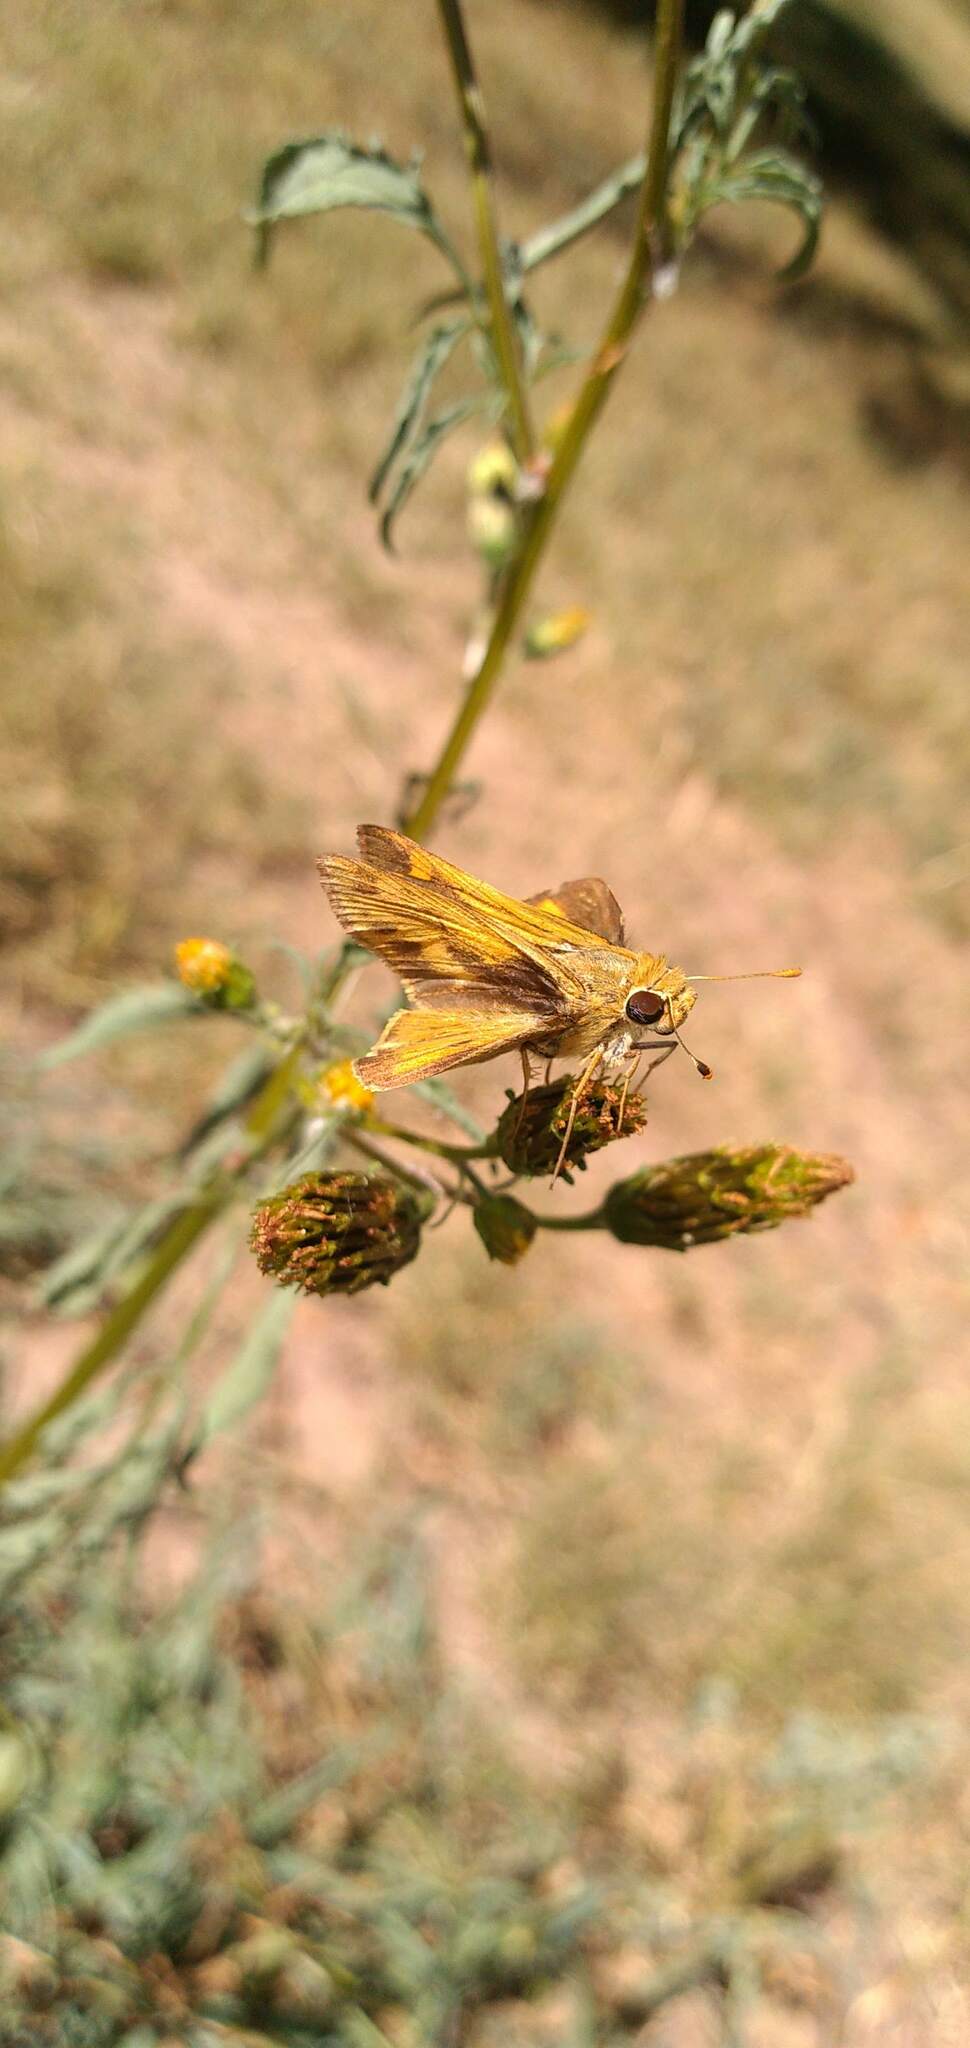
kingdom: Animalia
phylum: Arthropoda
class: Insecta
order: Lepidoptera
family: Hesperiidae
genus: Hylephila
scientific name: Hylephila phyleus
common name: Fiery skipper
